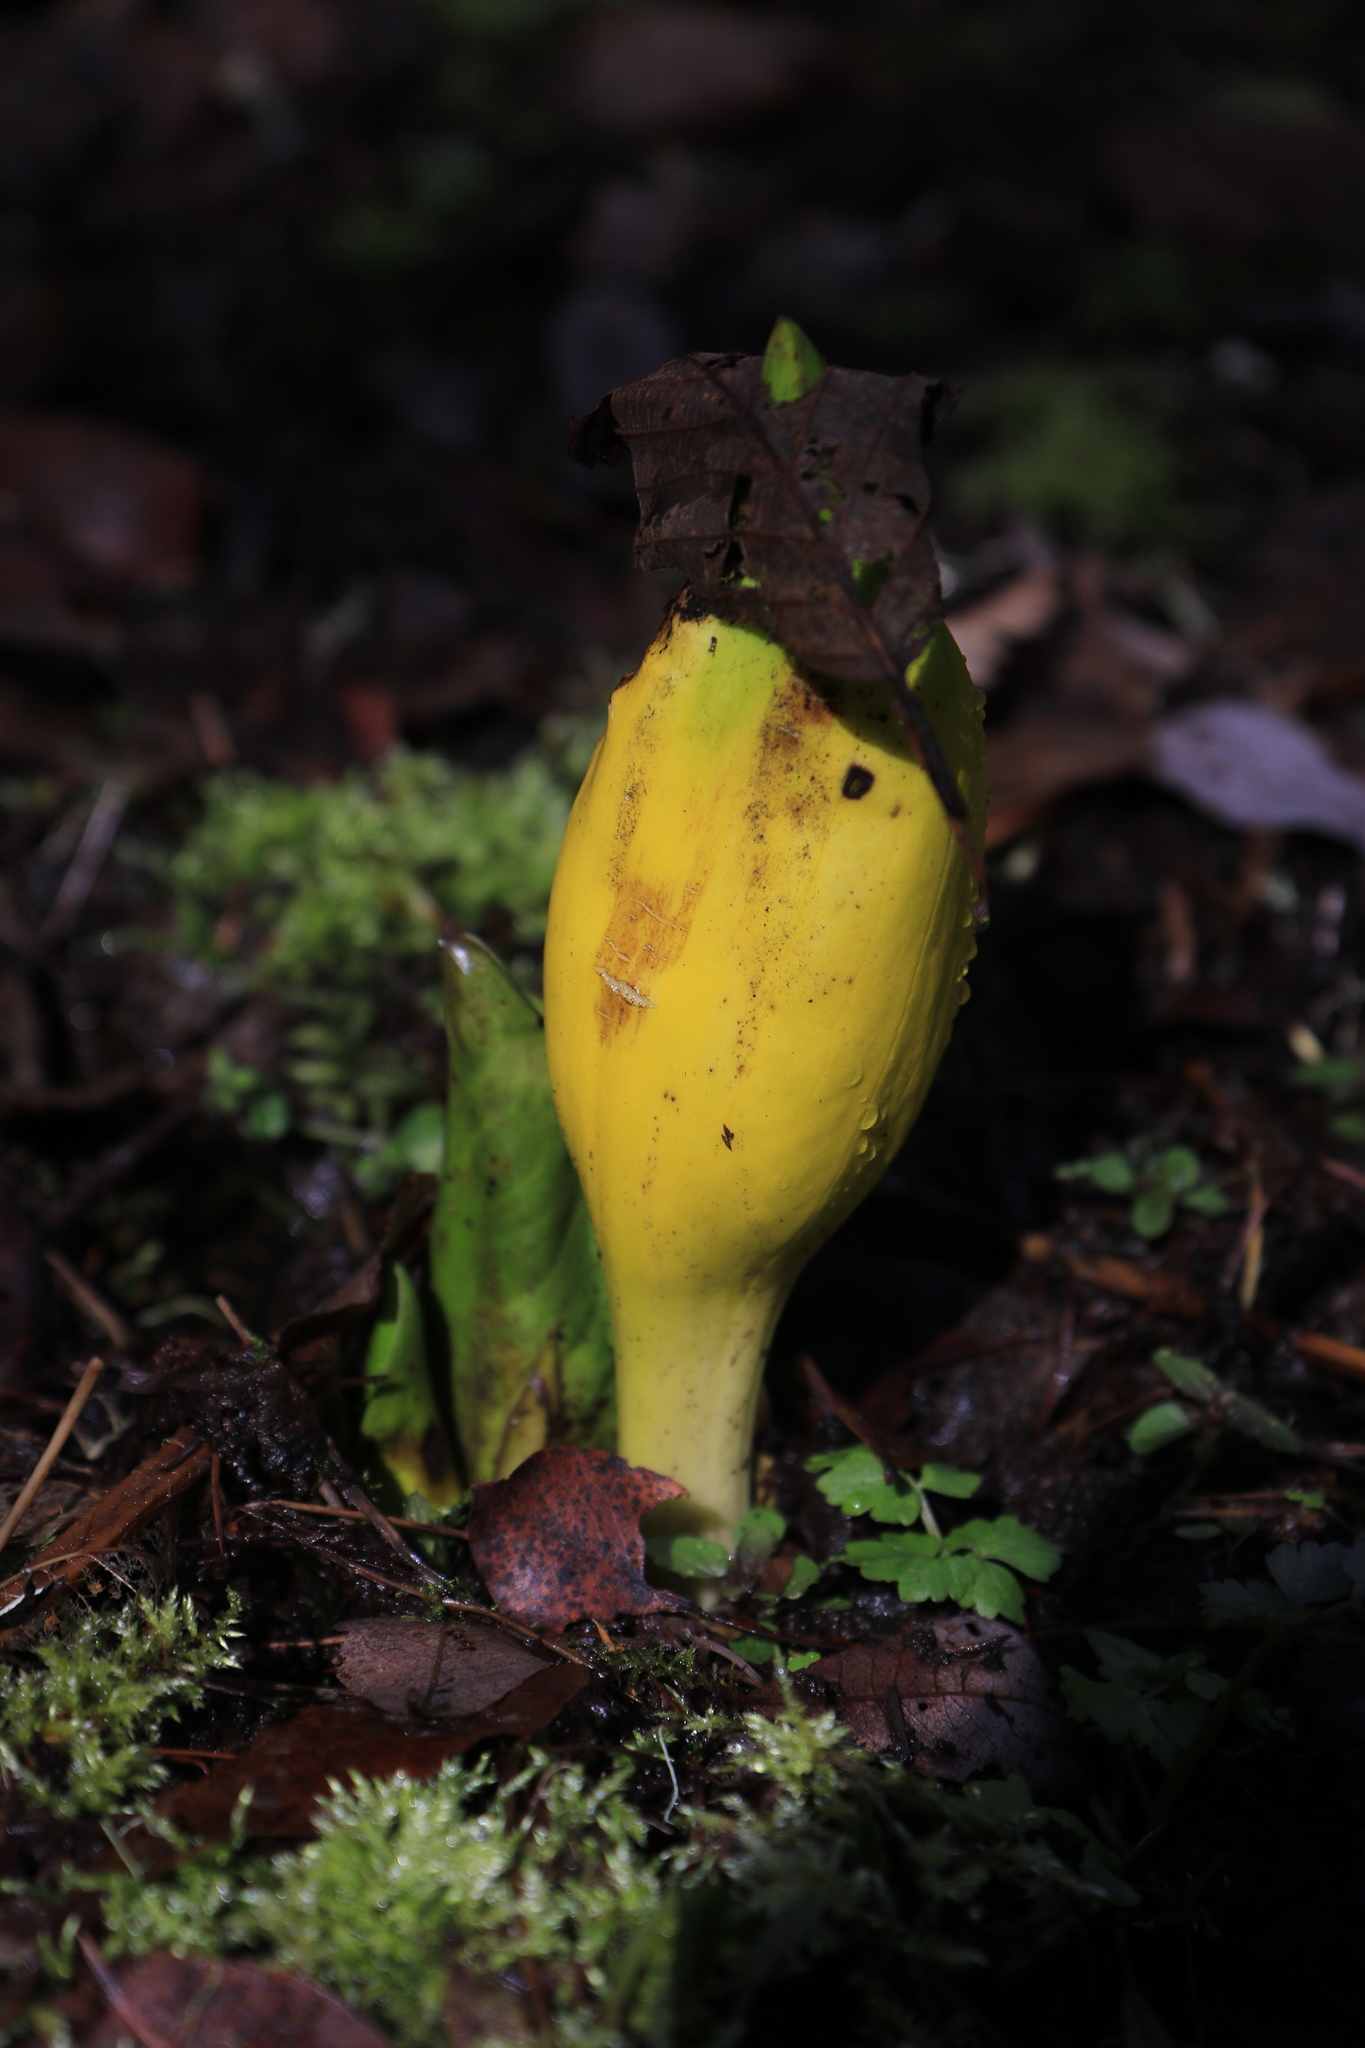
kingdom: Plantae
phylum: Tracheophyta
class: Liliopsida
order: Alismatales
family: Araceae
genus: Lysichiton
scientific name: Lysichiton americanus
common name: American skunk cabbage
